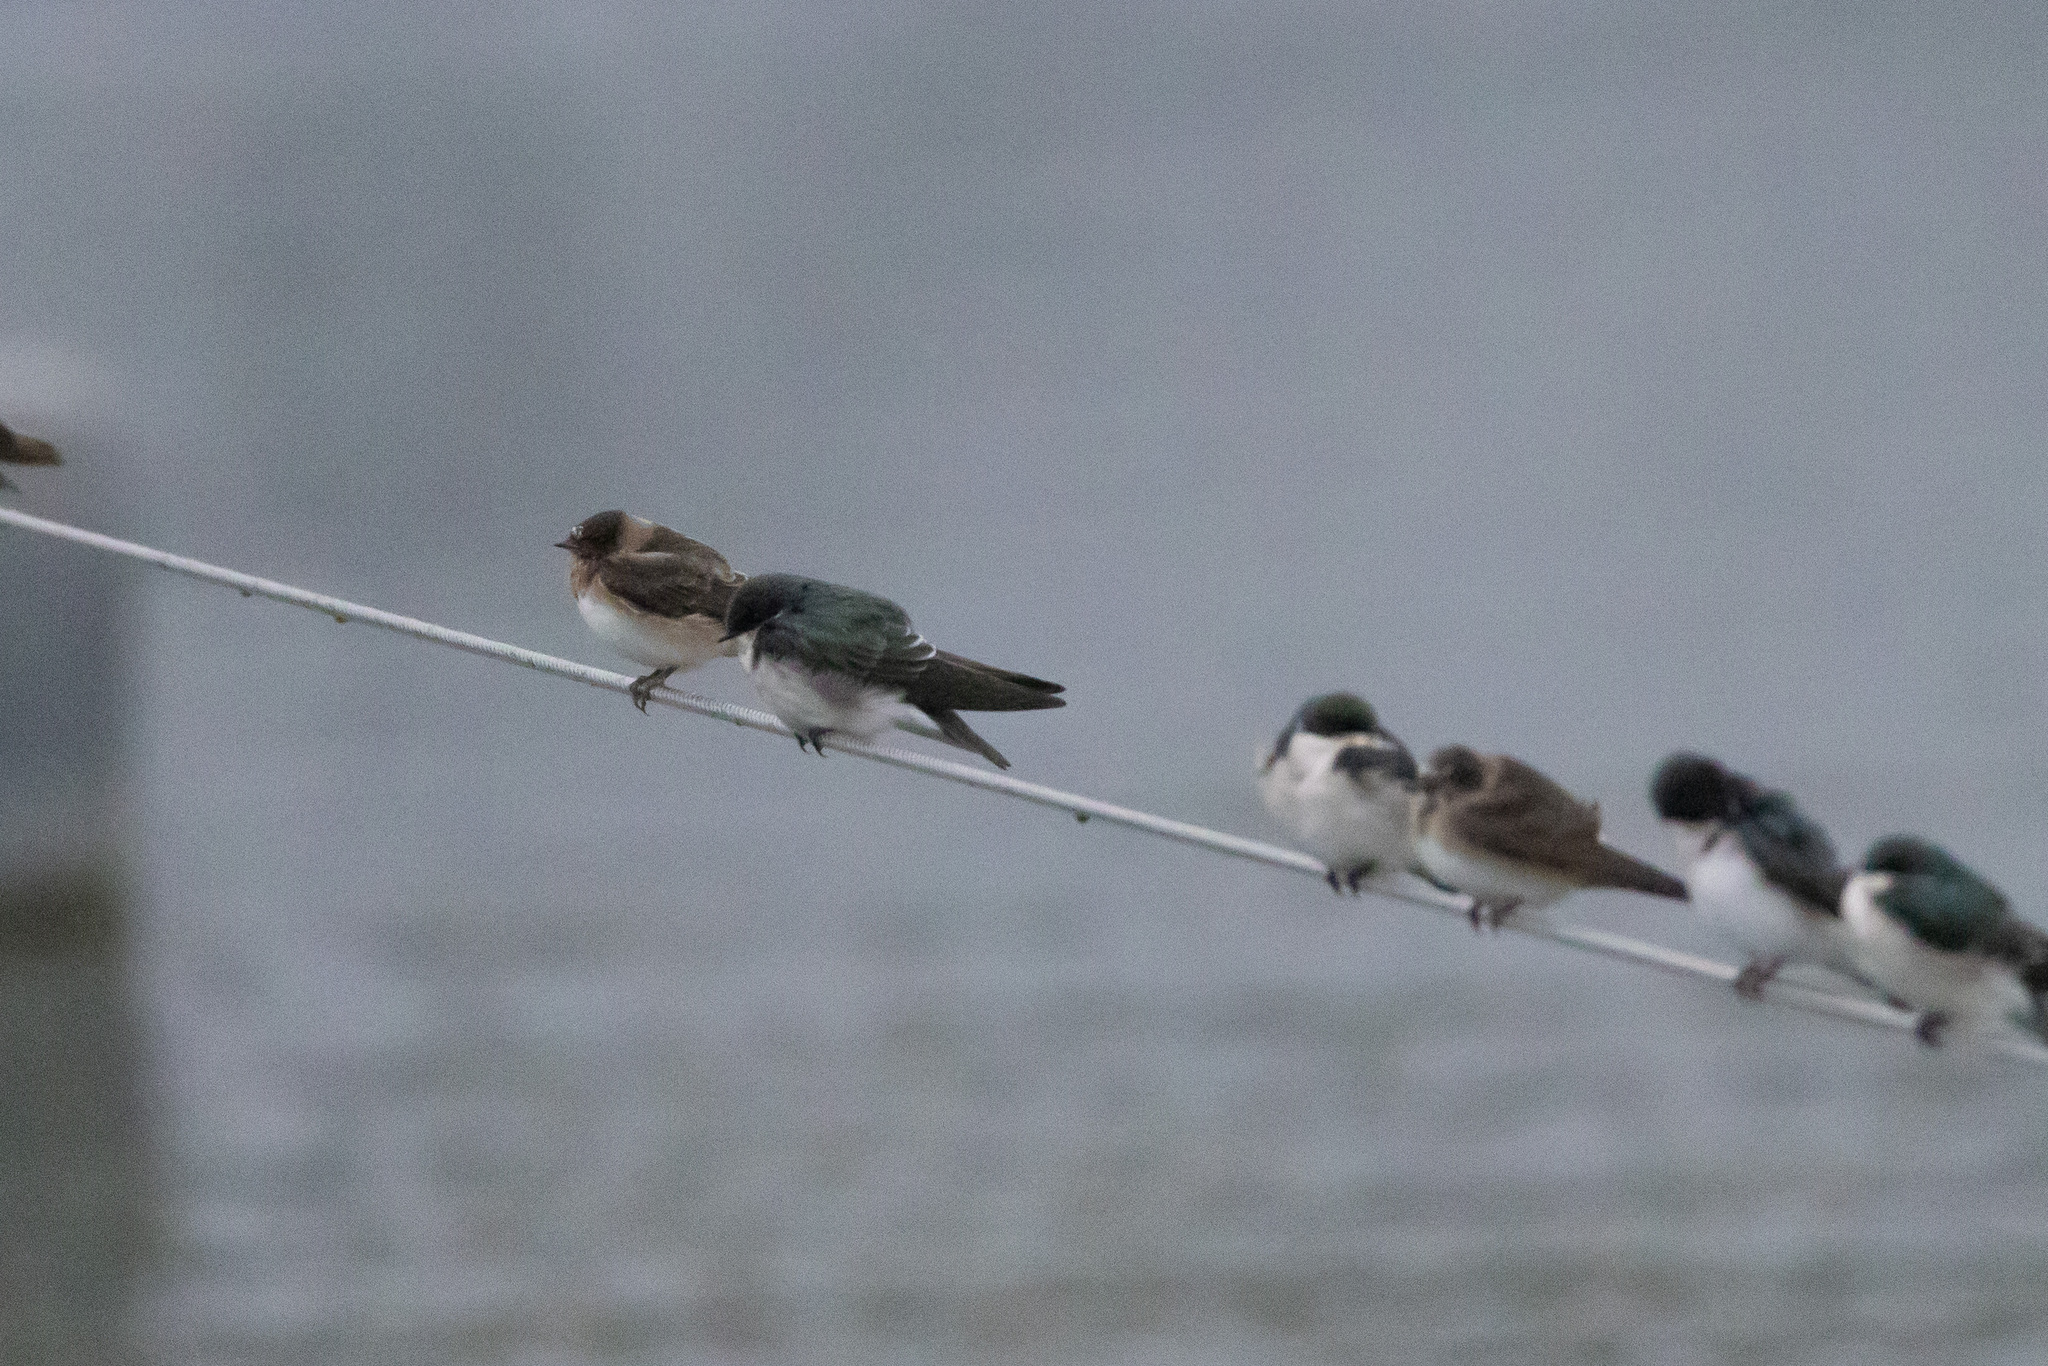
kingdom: Animalia
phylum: Chordata
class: Aves
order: Passeriformes
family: Hirundinidae
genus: Tachycineta
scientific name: Tachycineta bicolor
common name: Tree swallow
